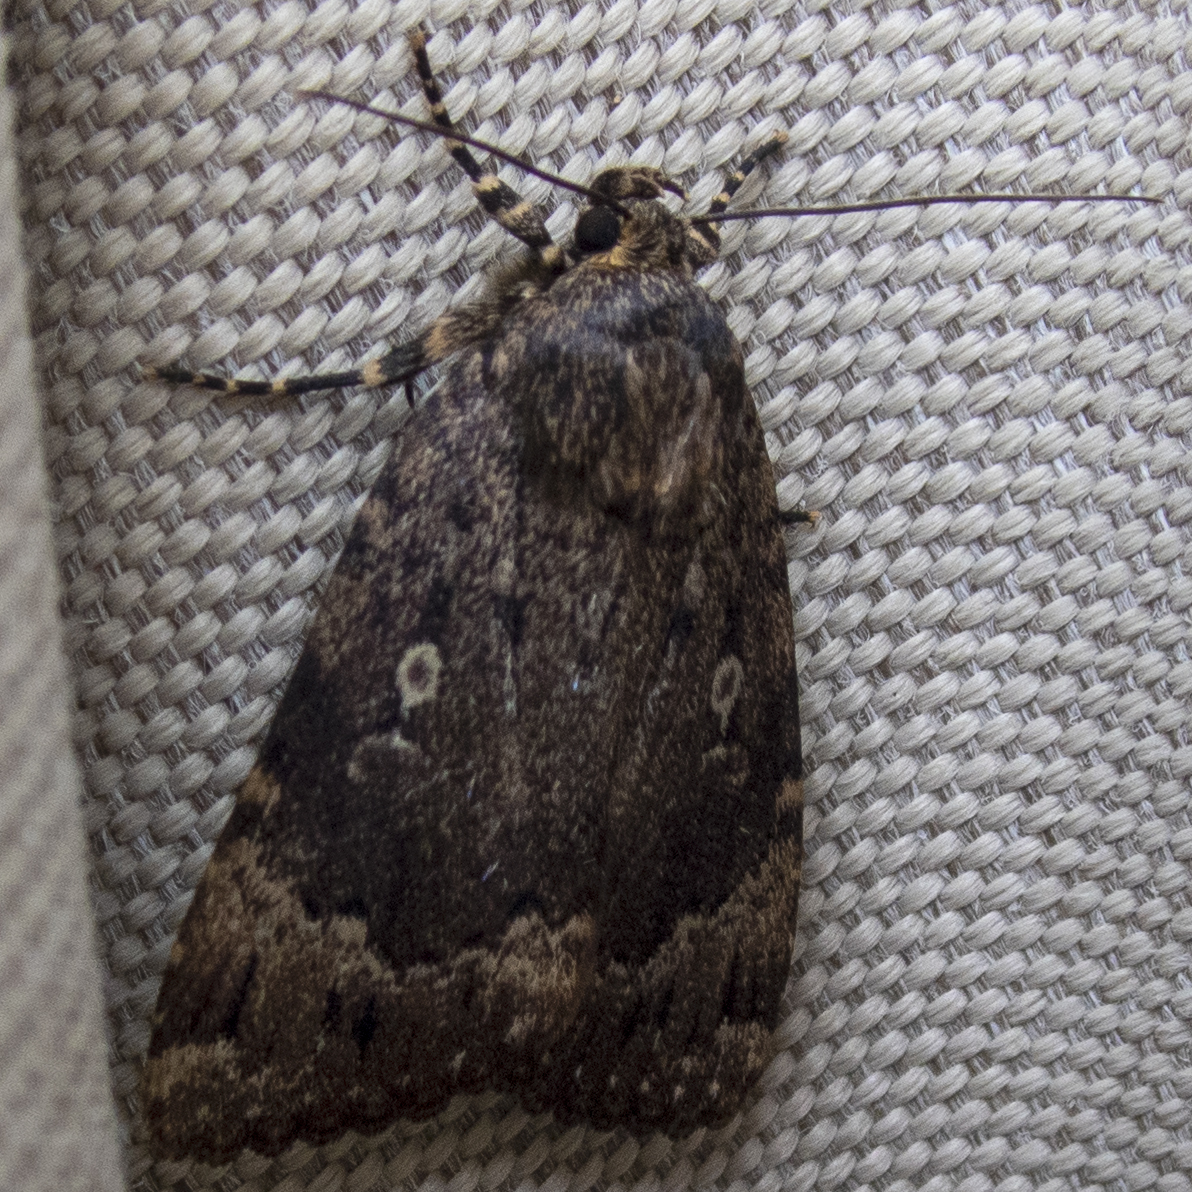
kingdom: Animalia
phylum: Arthropoda
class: Insecta
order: Lepidoptera
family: Noctuidae
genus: Amphipyra
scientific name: Amphipyra pyramidoides
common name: American copper underwing
